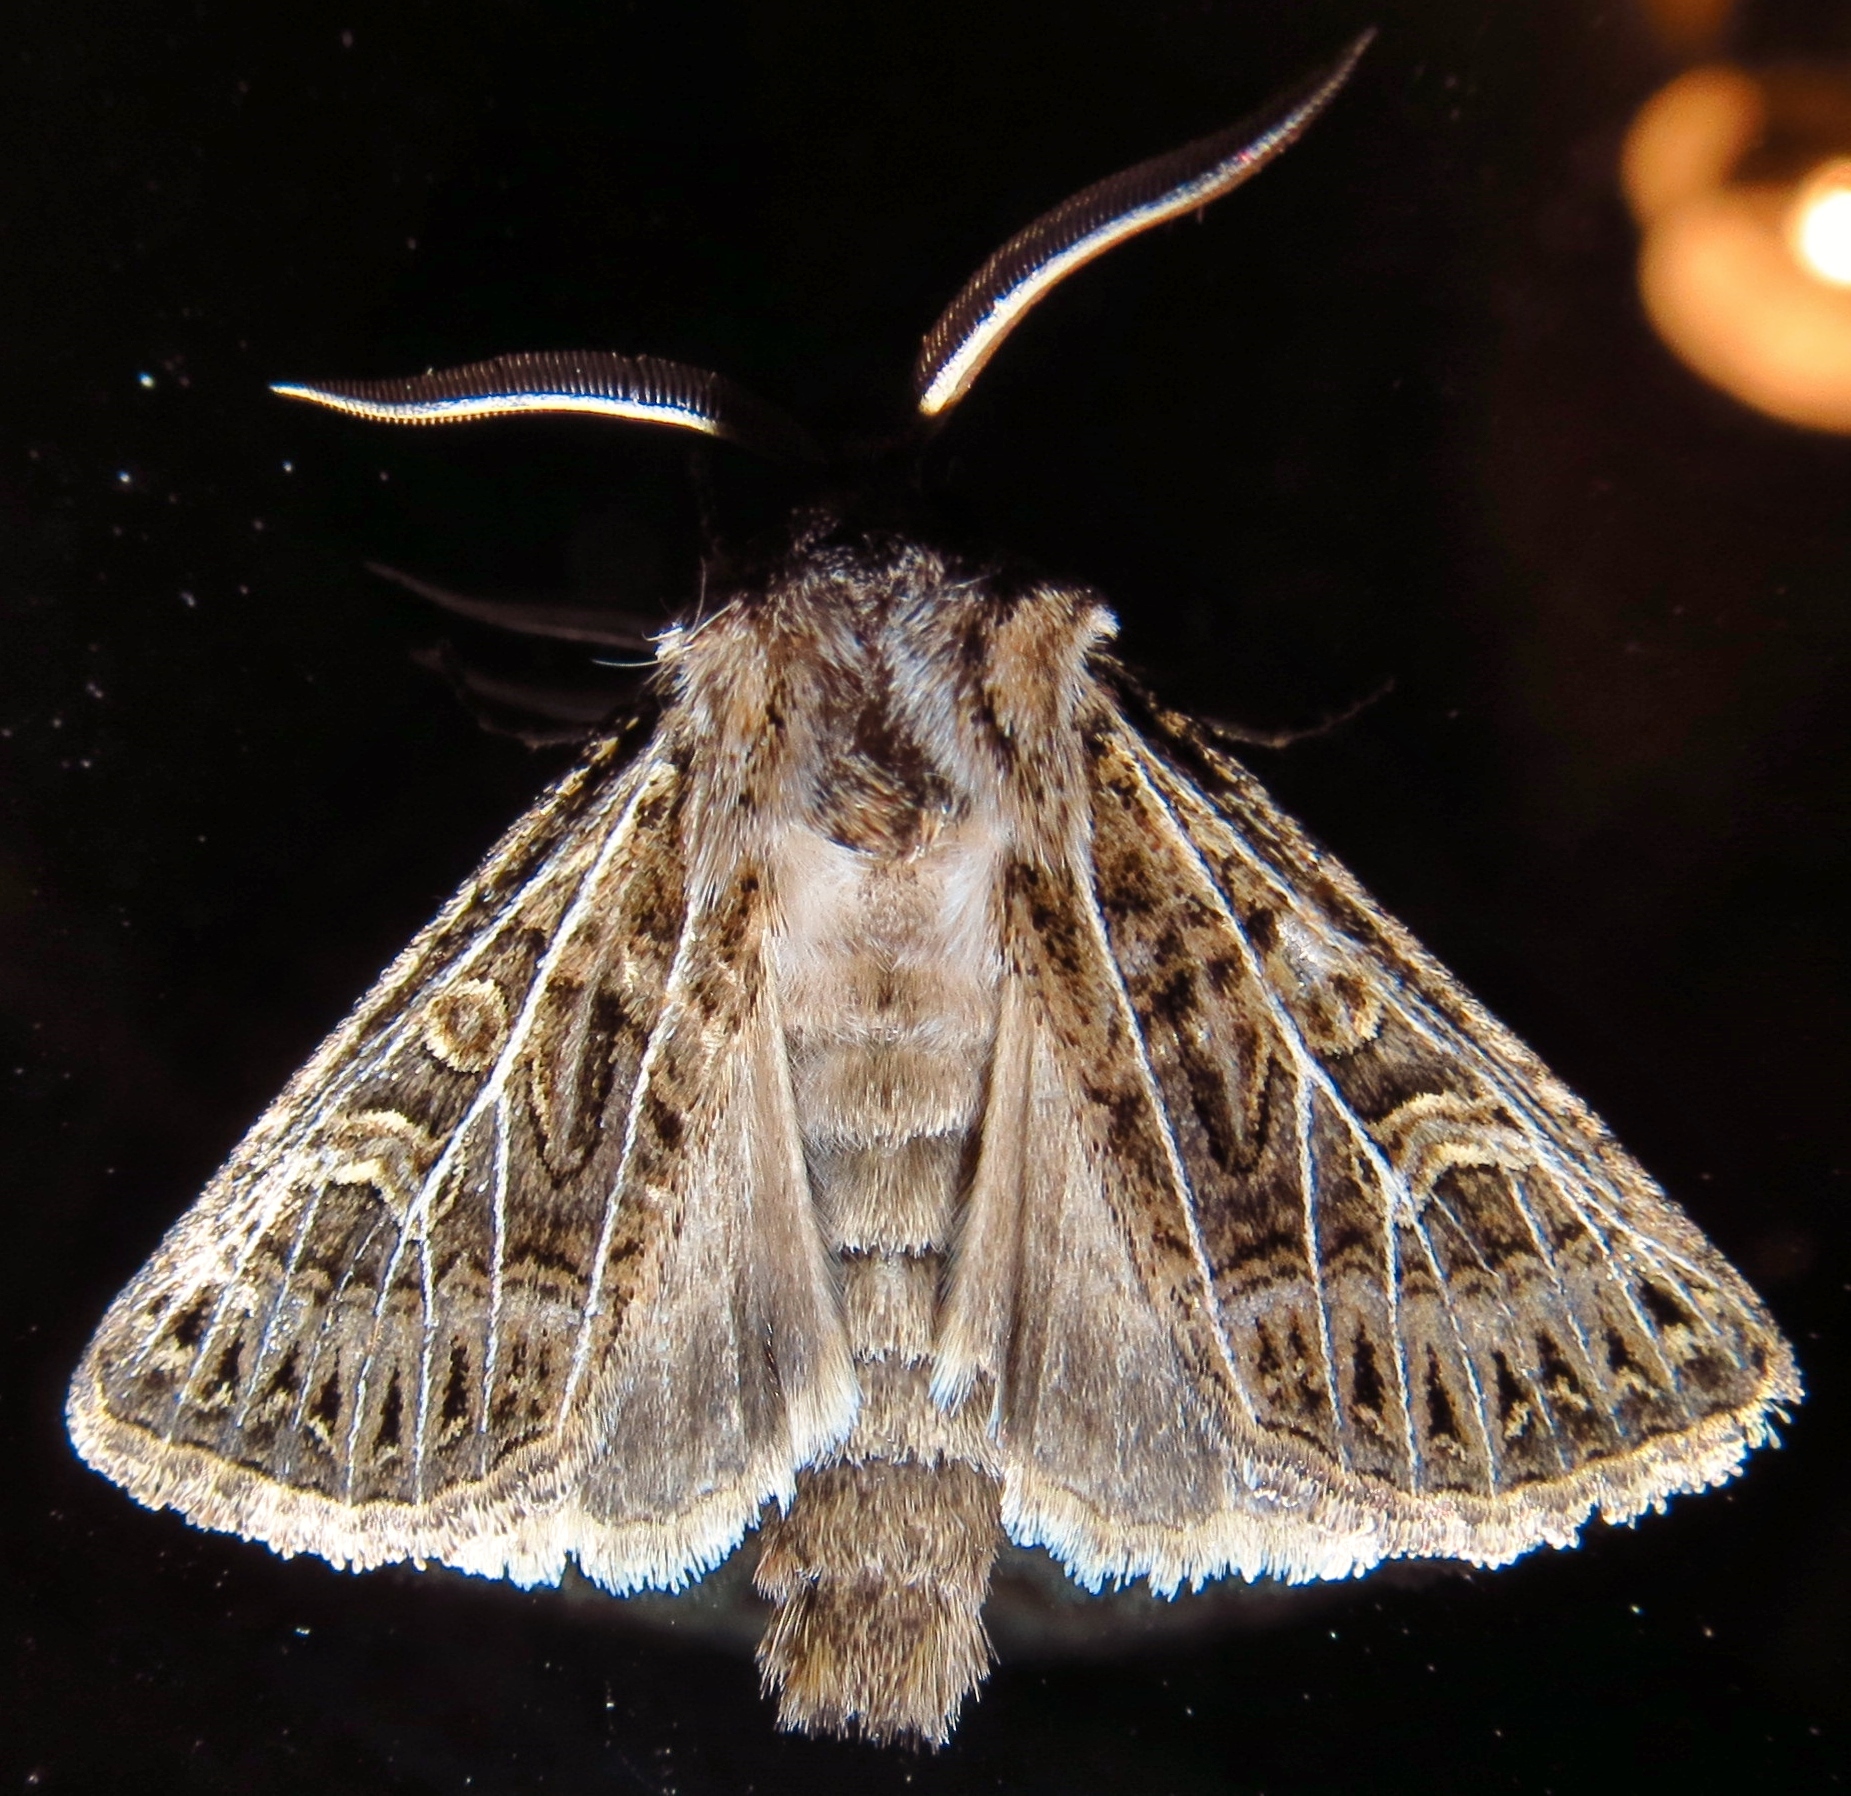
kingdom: Animalia
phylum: Arthropoda
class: Insecta
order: Lepidoptera
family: Noctuidae
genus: Tholera
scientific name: Tholera decimalis
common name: Feathered gothic
